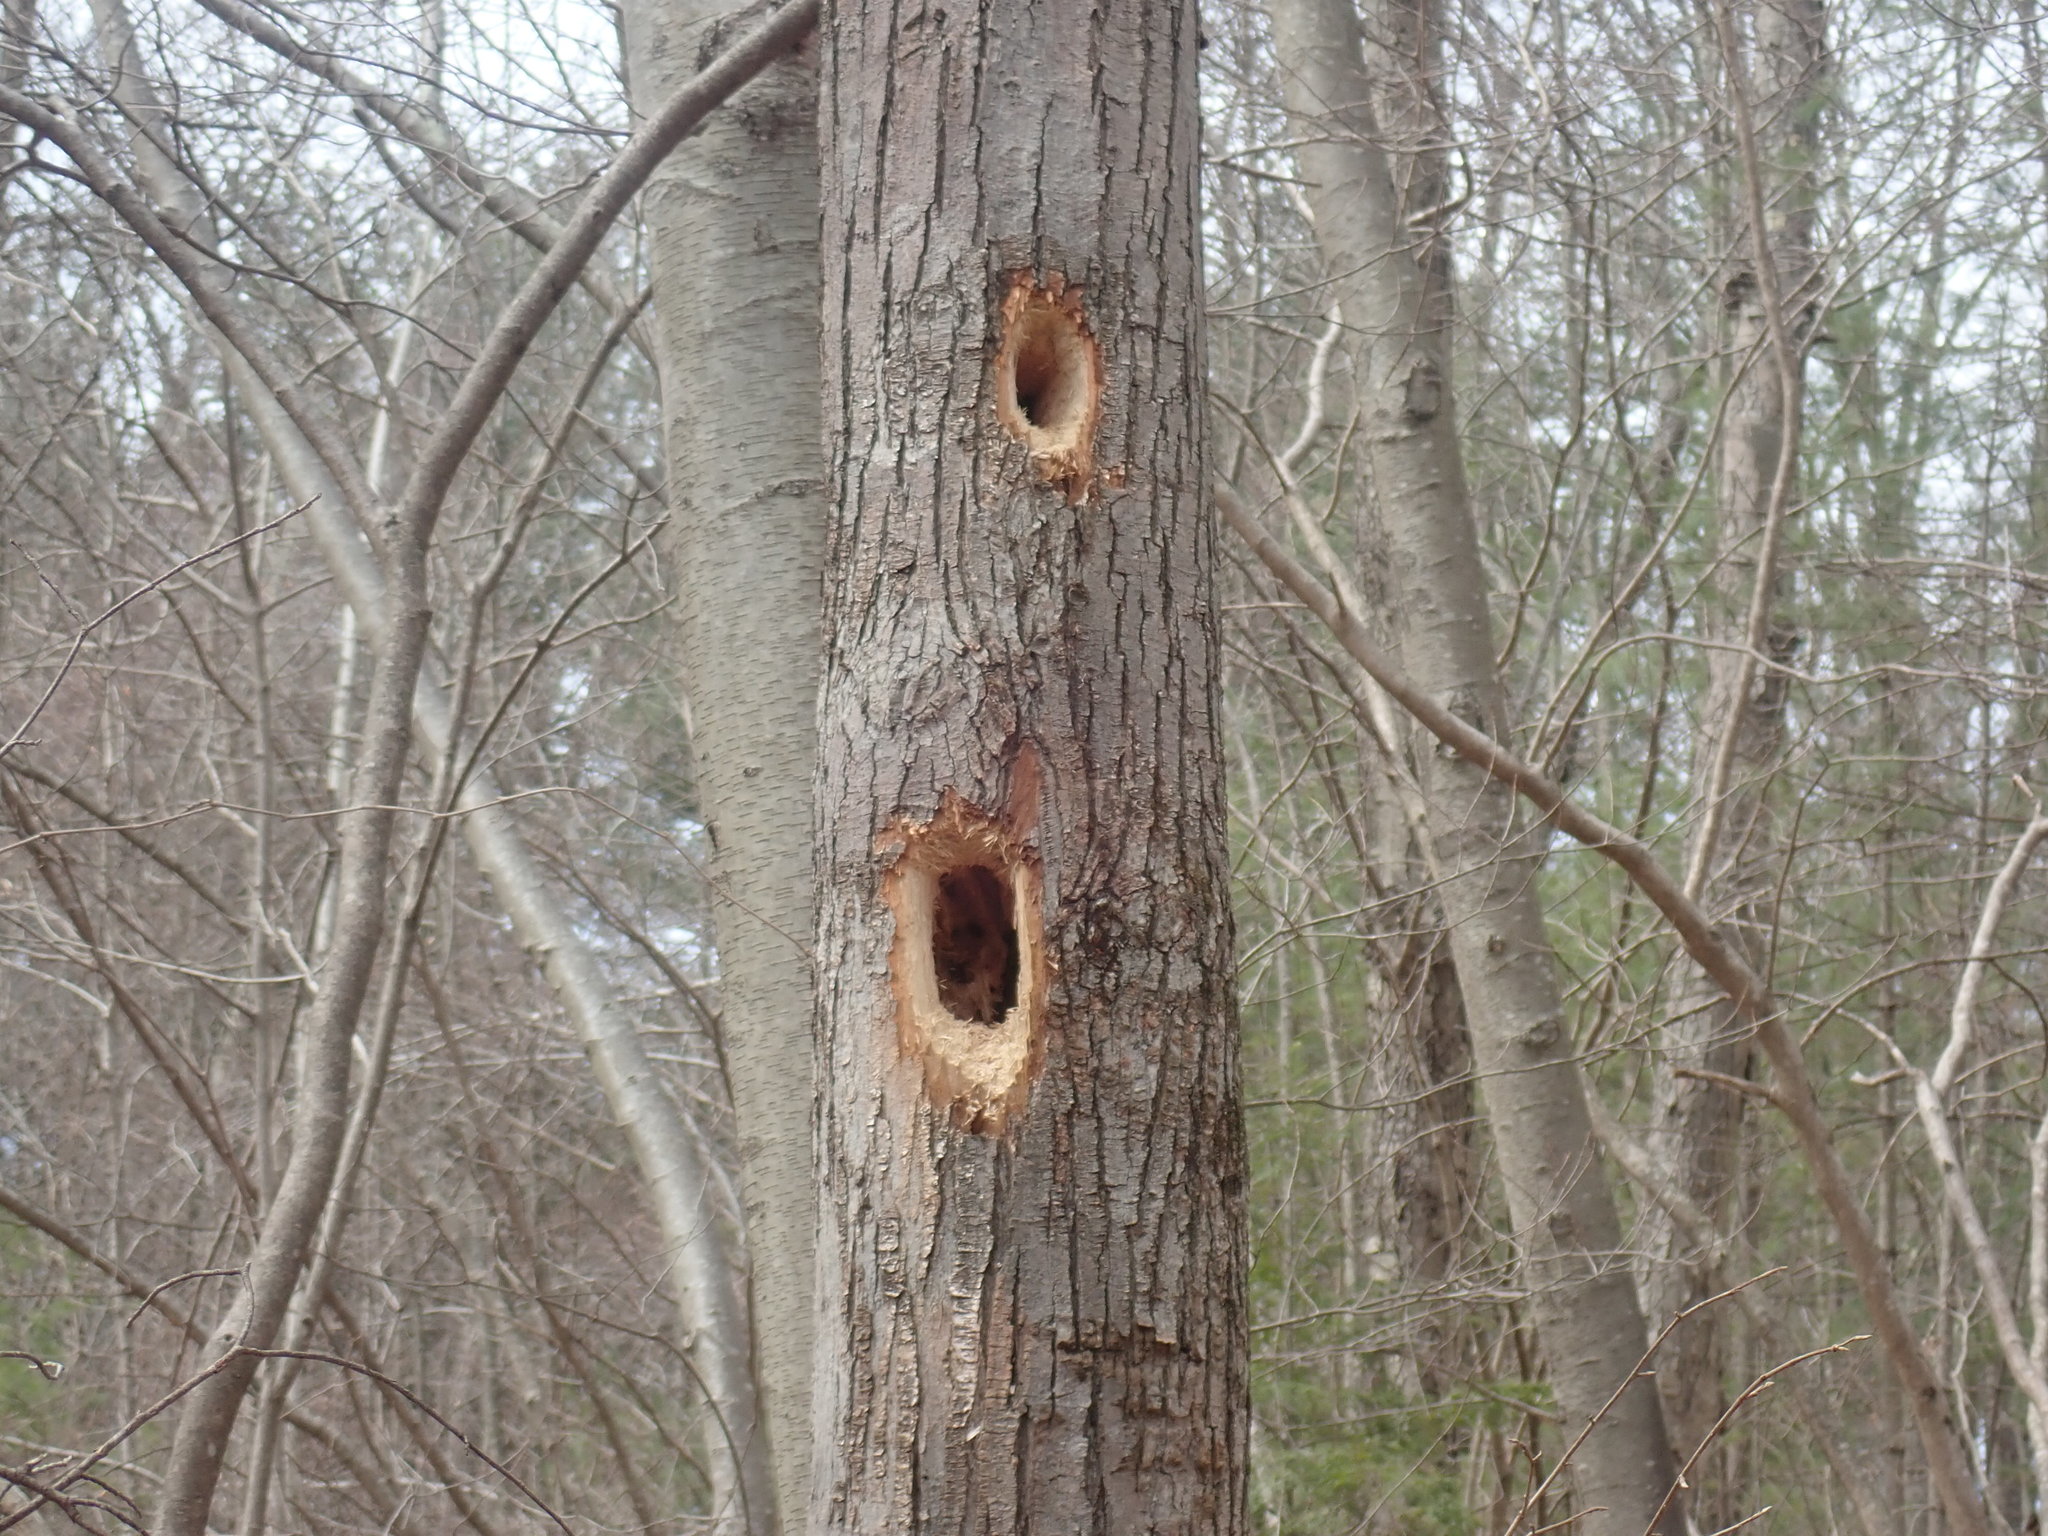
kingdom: Animalia
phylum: Chordata
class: Aves
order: Piciformes
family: Picidae
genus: Dryocopus
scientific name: Dryocopus pileatus
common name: Pileated woodpecker
